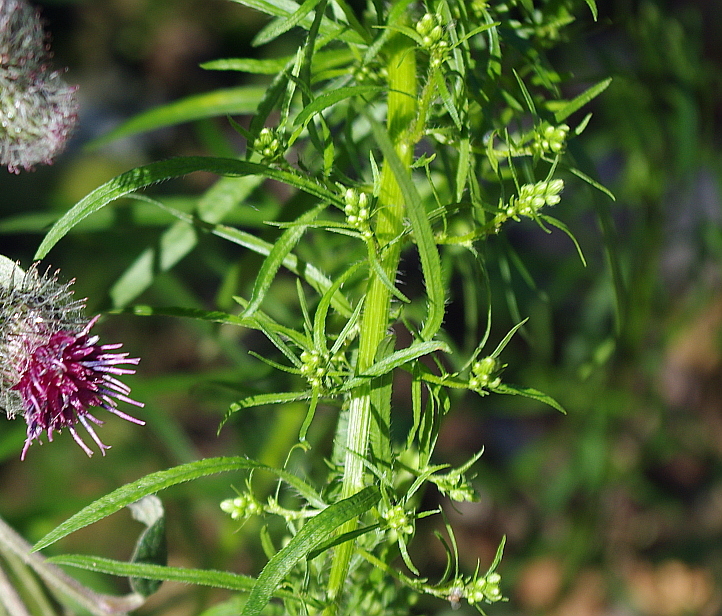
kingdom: Plantae
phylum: Tracheophyta
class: Magnoliopsida
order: Asterales
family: Asteraceae
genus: Erigeron
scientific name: Erigeron canadensis
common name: Canadian fleabane
